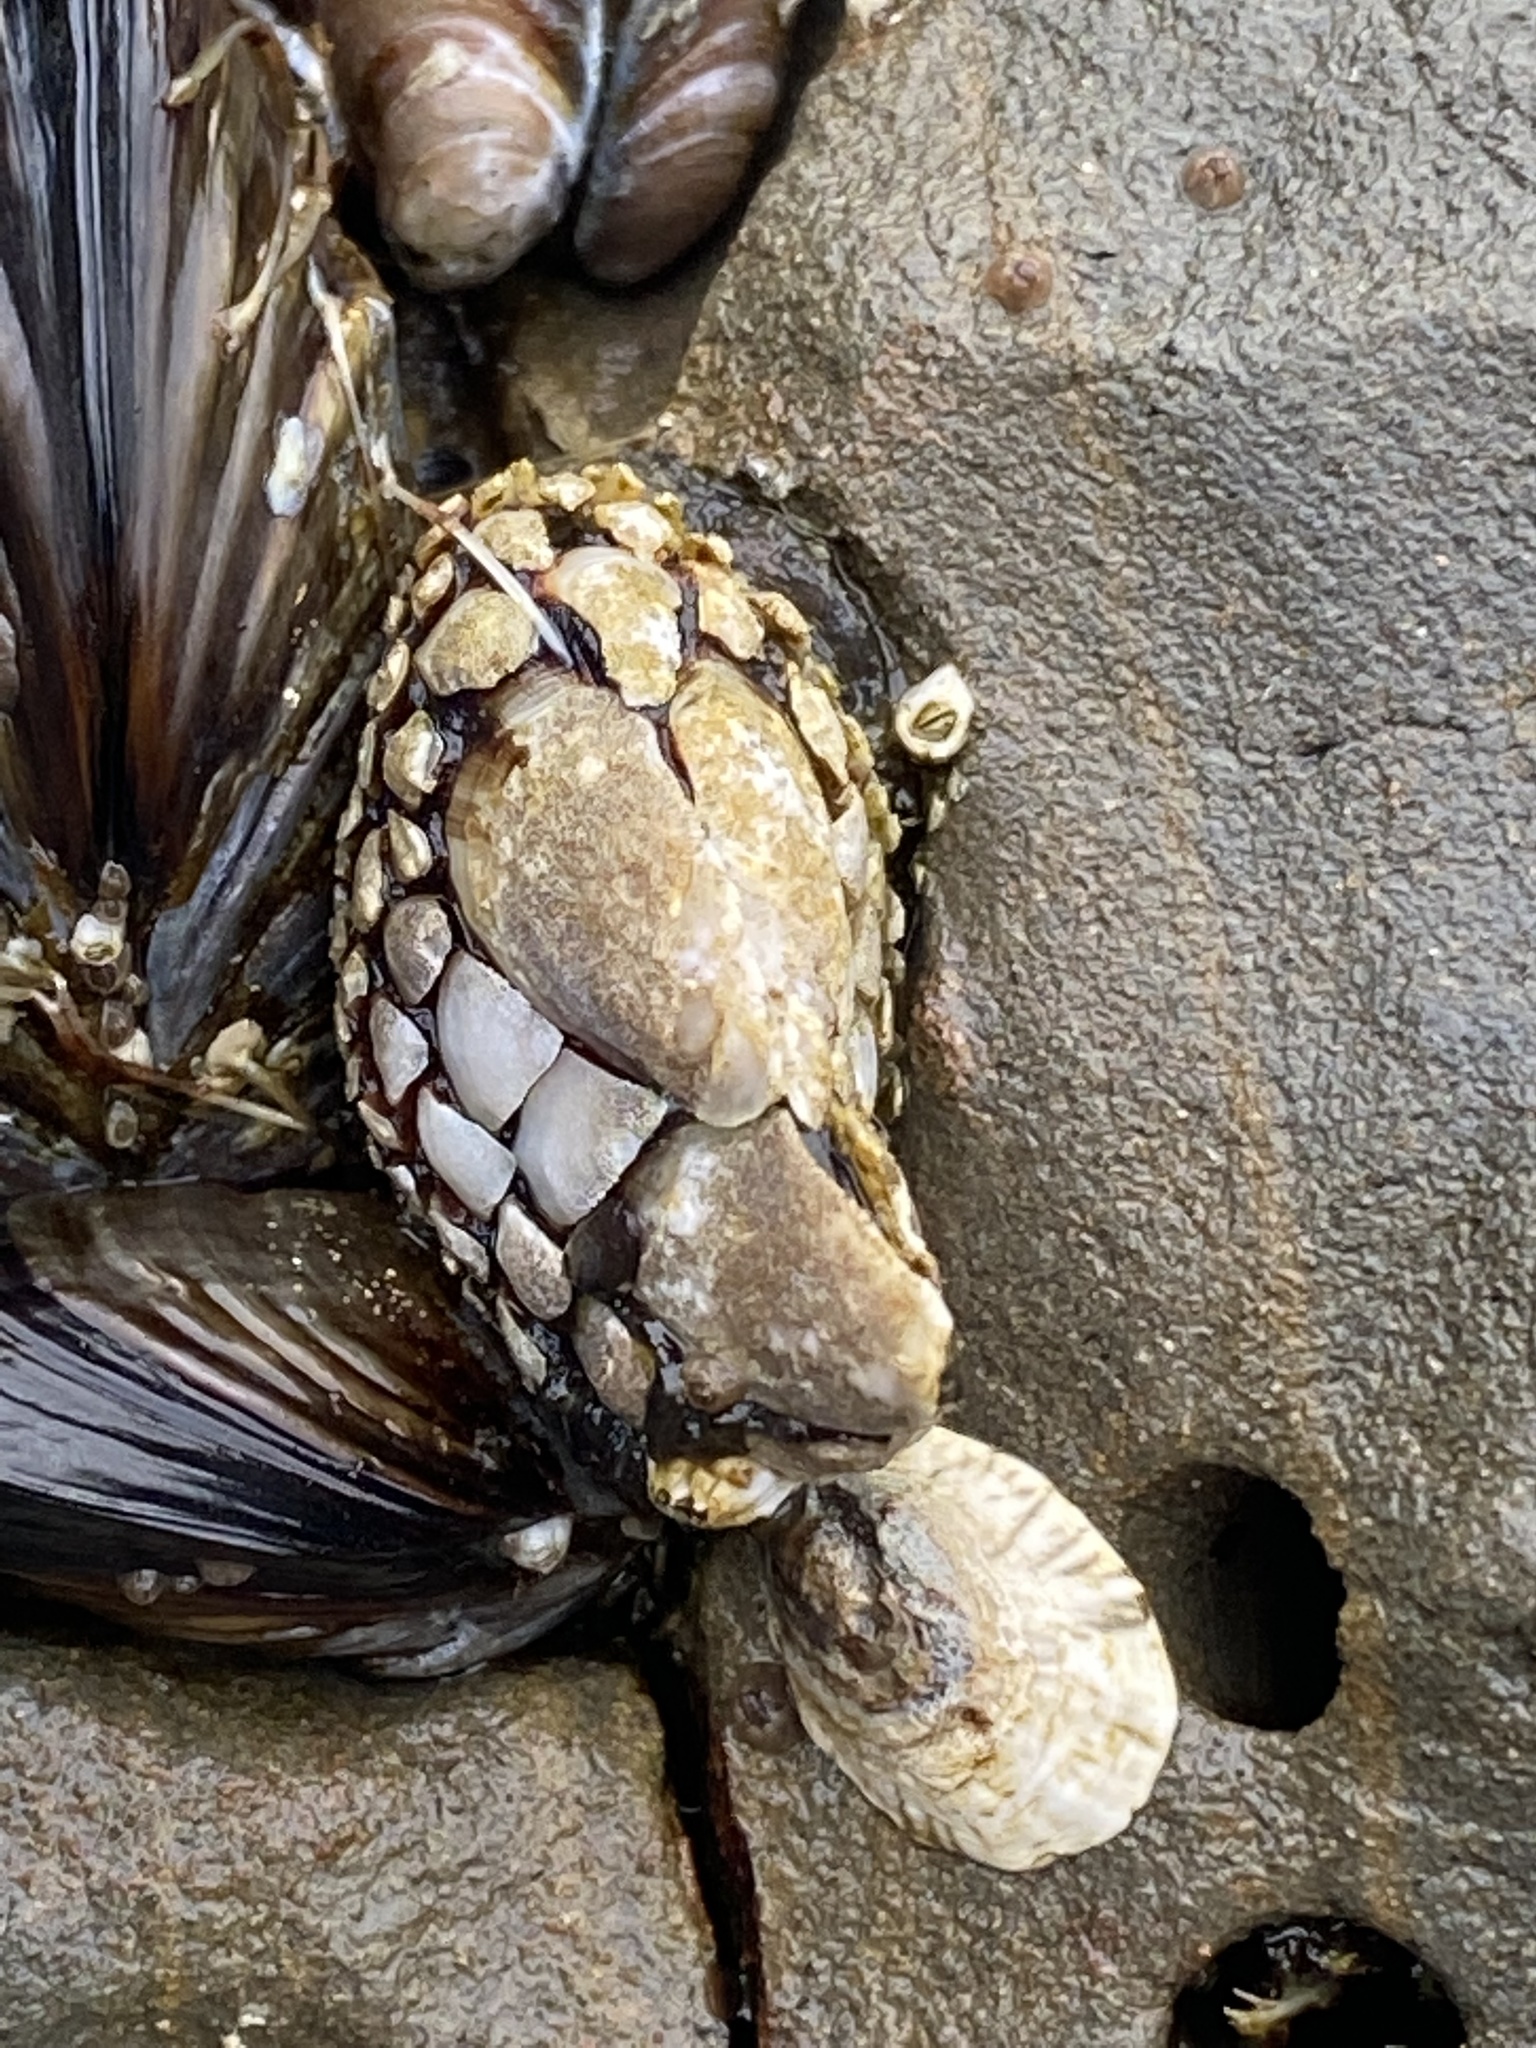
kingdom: Animalia
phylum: Arthropoda
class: Maxillopoda
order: Pedunculata
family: Pollicipedidae
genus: Pollicipes
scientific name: Pollicipes polymerus
